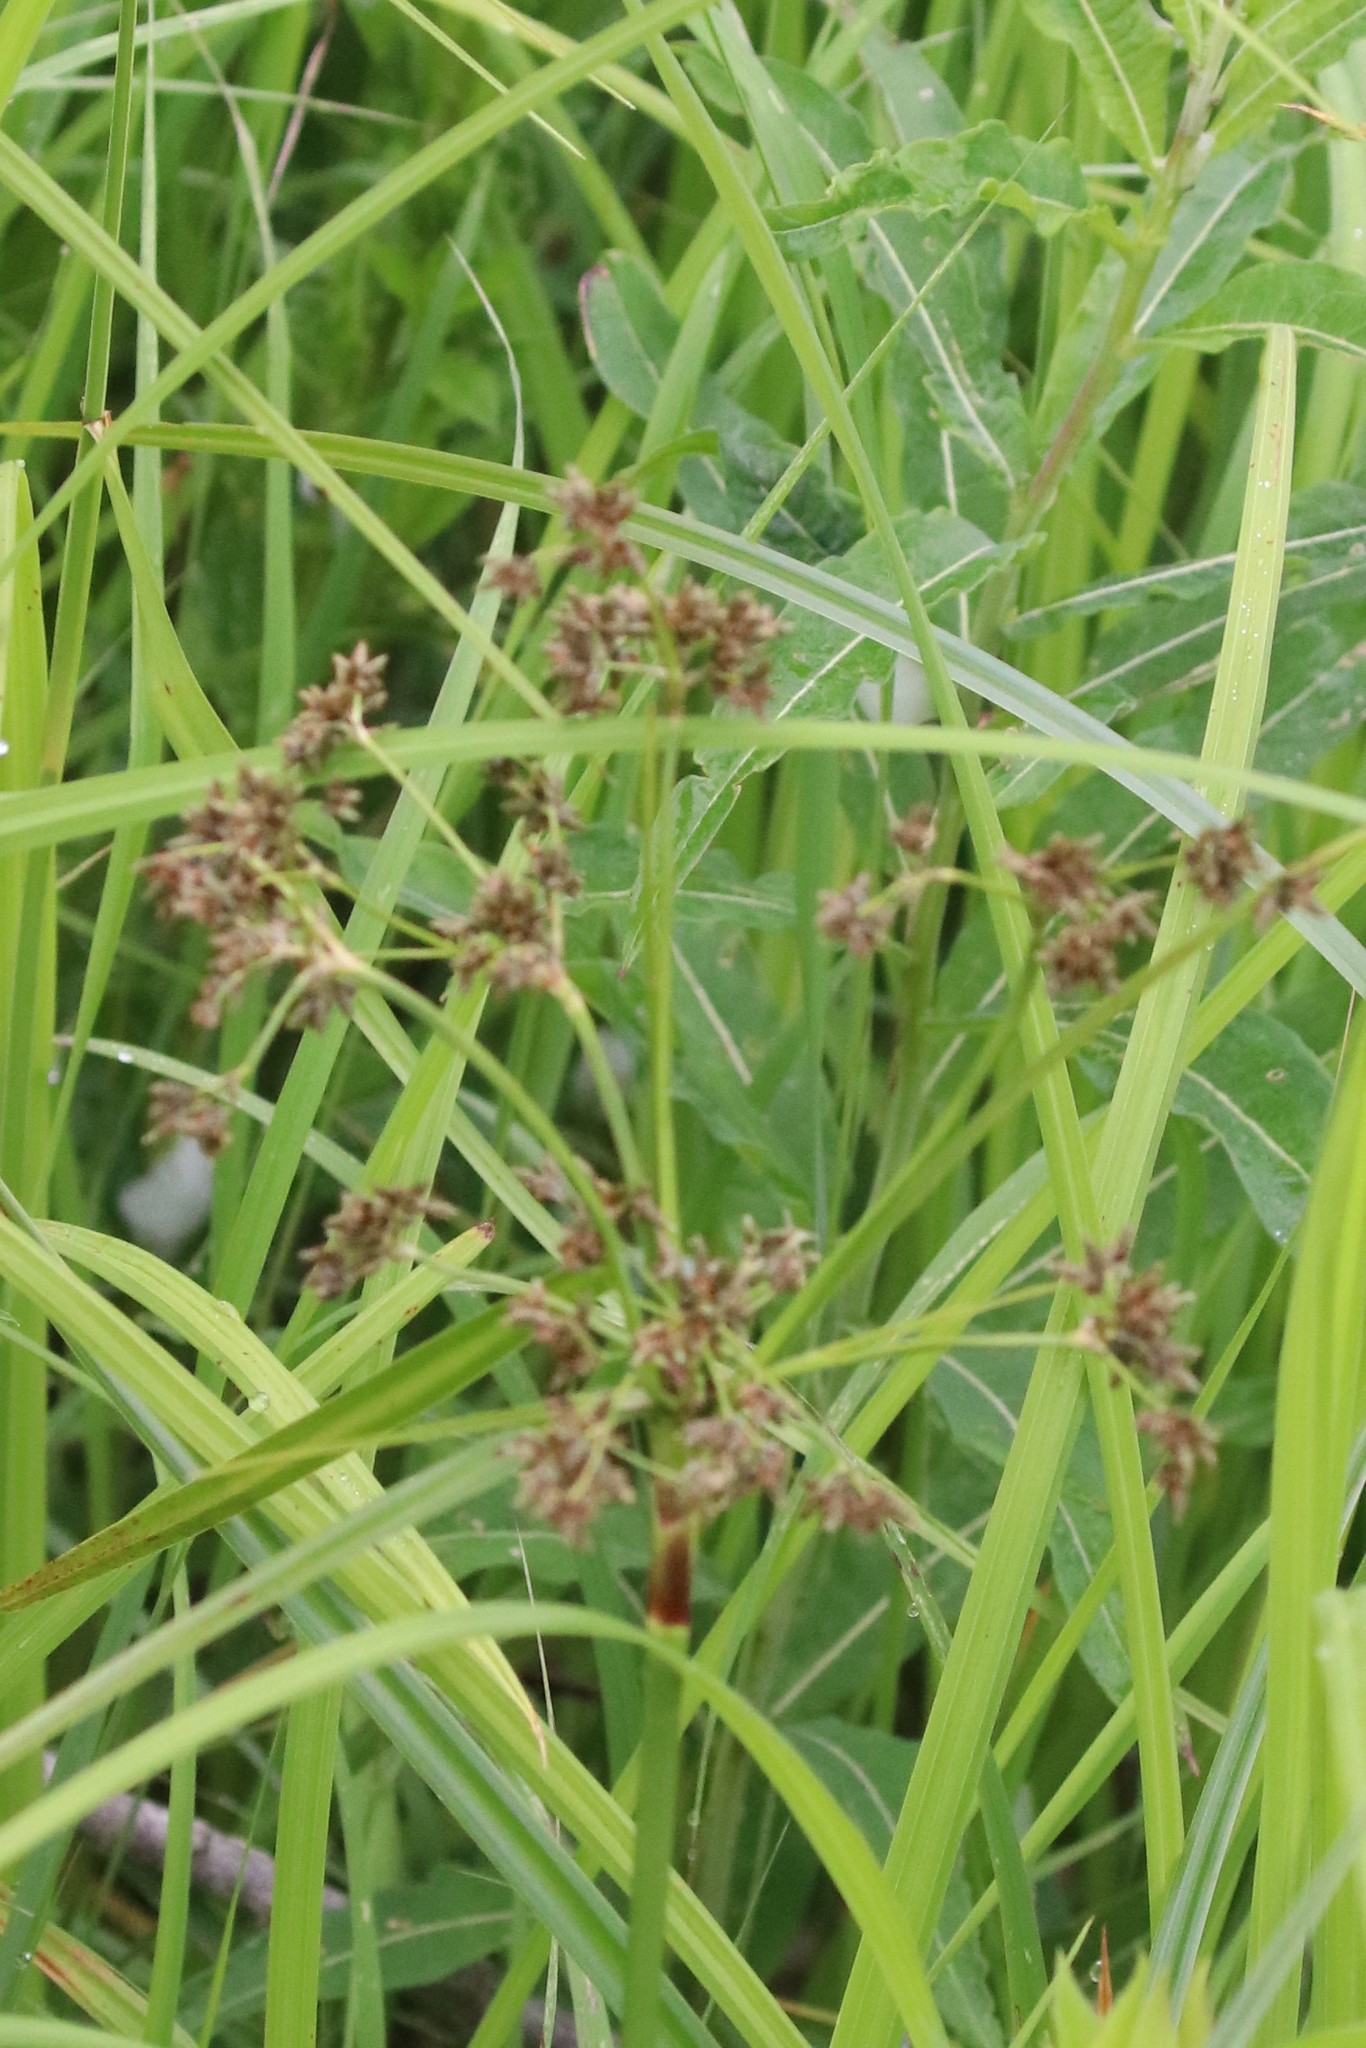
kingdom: Plantae
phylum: Tracheophyta
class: Liliopsida
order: Poales
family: Cyperaceae
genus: Scirpus
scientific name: Scirpus microcarpus
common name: Panicled bulrush
